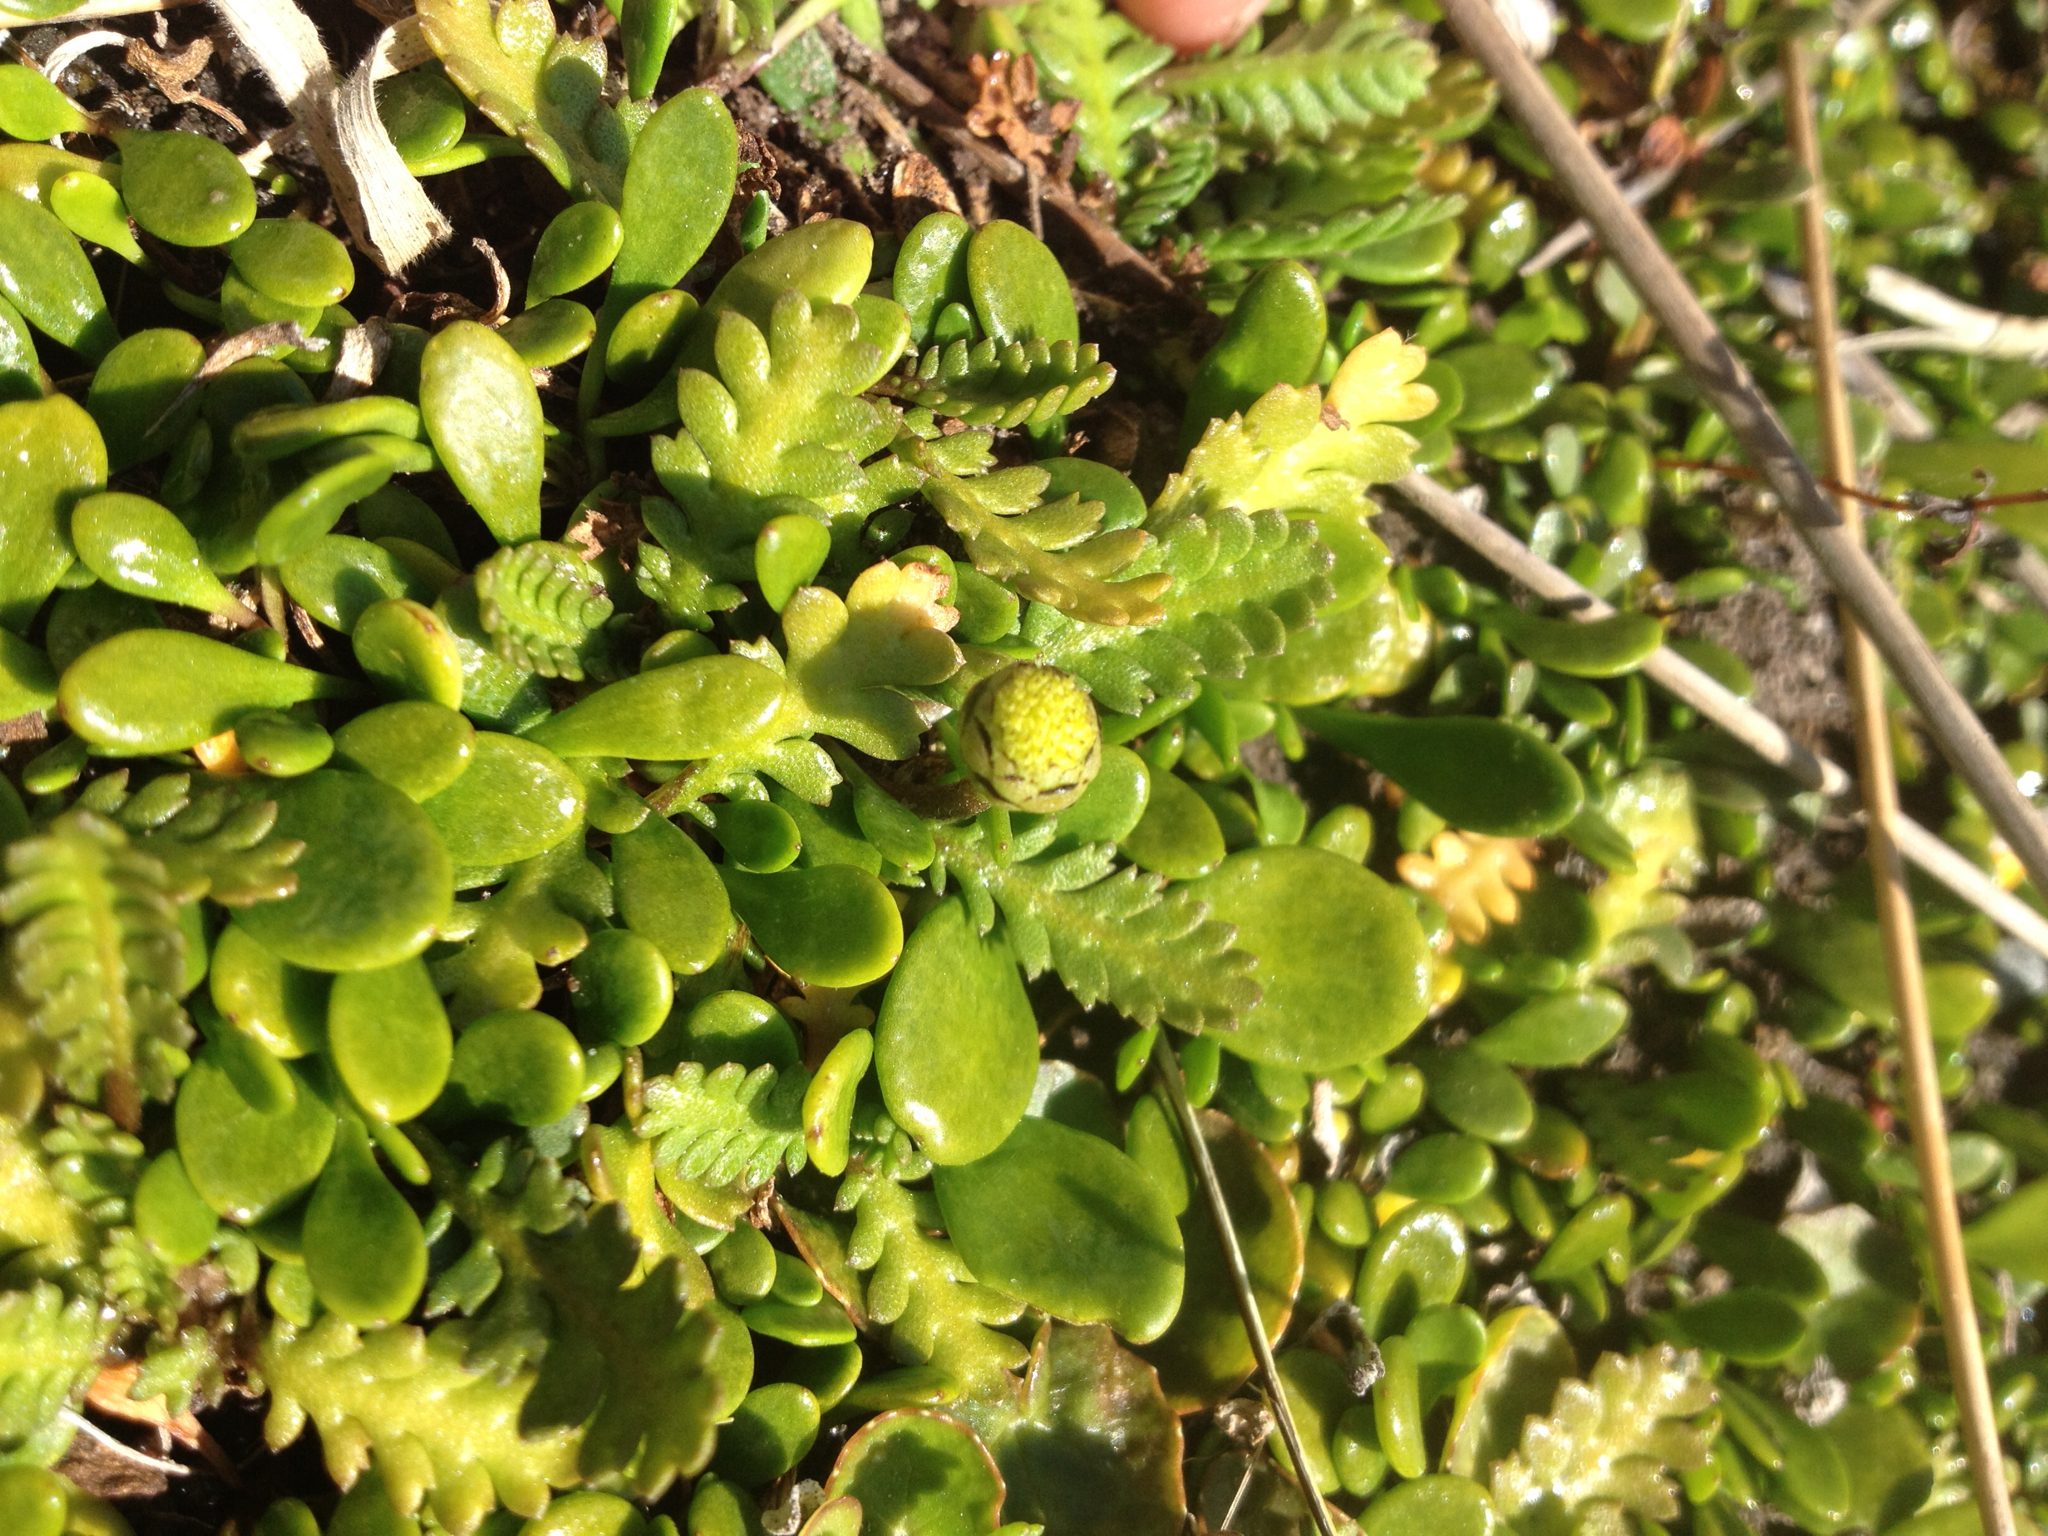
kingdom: Plantae
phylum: Tracheophyta
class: Magnoliopsida
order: Asterales
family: Asteraceae
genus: Leptinella
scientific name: Leptinella dioica
